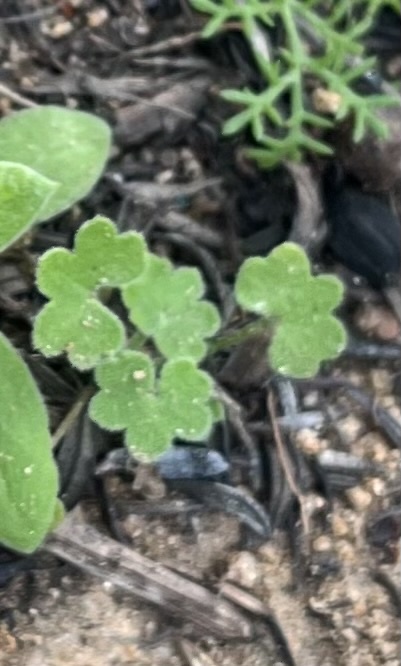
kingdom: Plantae
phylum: Tracheophyta
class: Magnoliopsida
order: Apiales
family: Apiaceae
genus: Bowlesia
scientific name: Bowlesia incana
